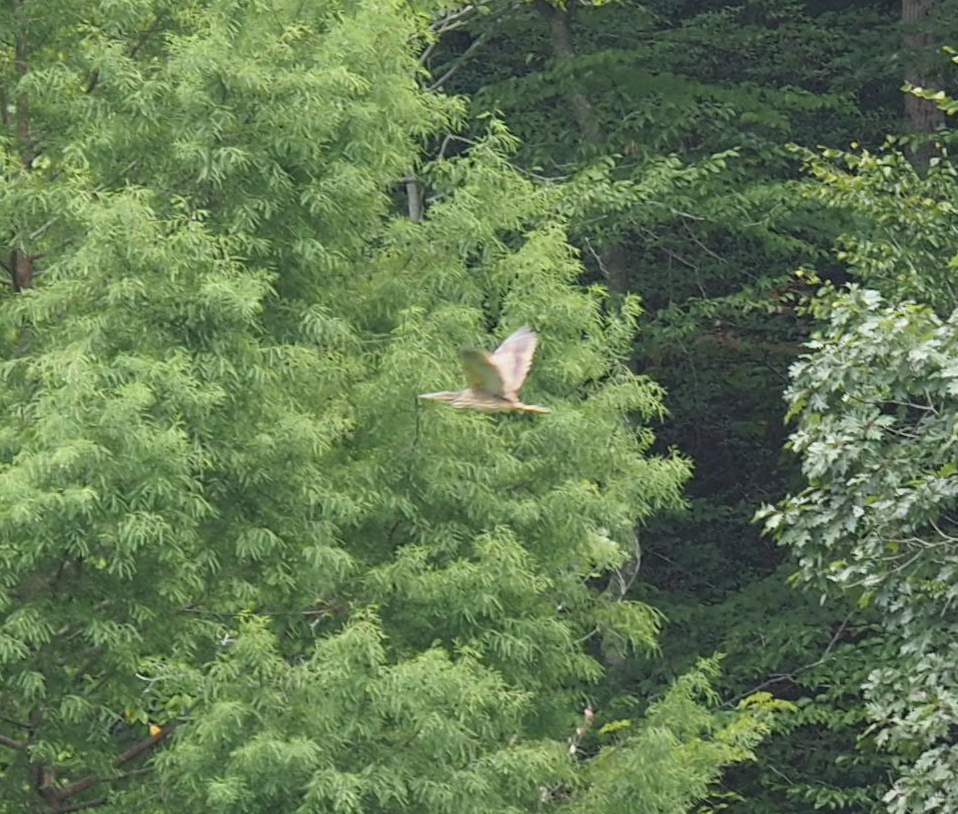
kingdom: Animalia
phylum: Chordata
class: Aves
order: Pelecaniformes
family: Ardeidae
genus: Botaurus
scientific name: Botaurus lentiginosus
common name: American bittern
